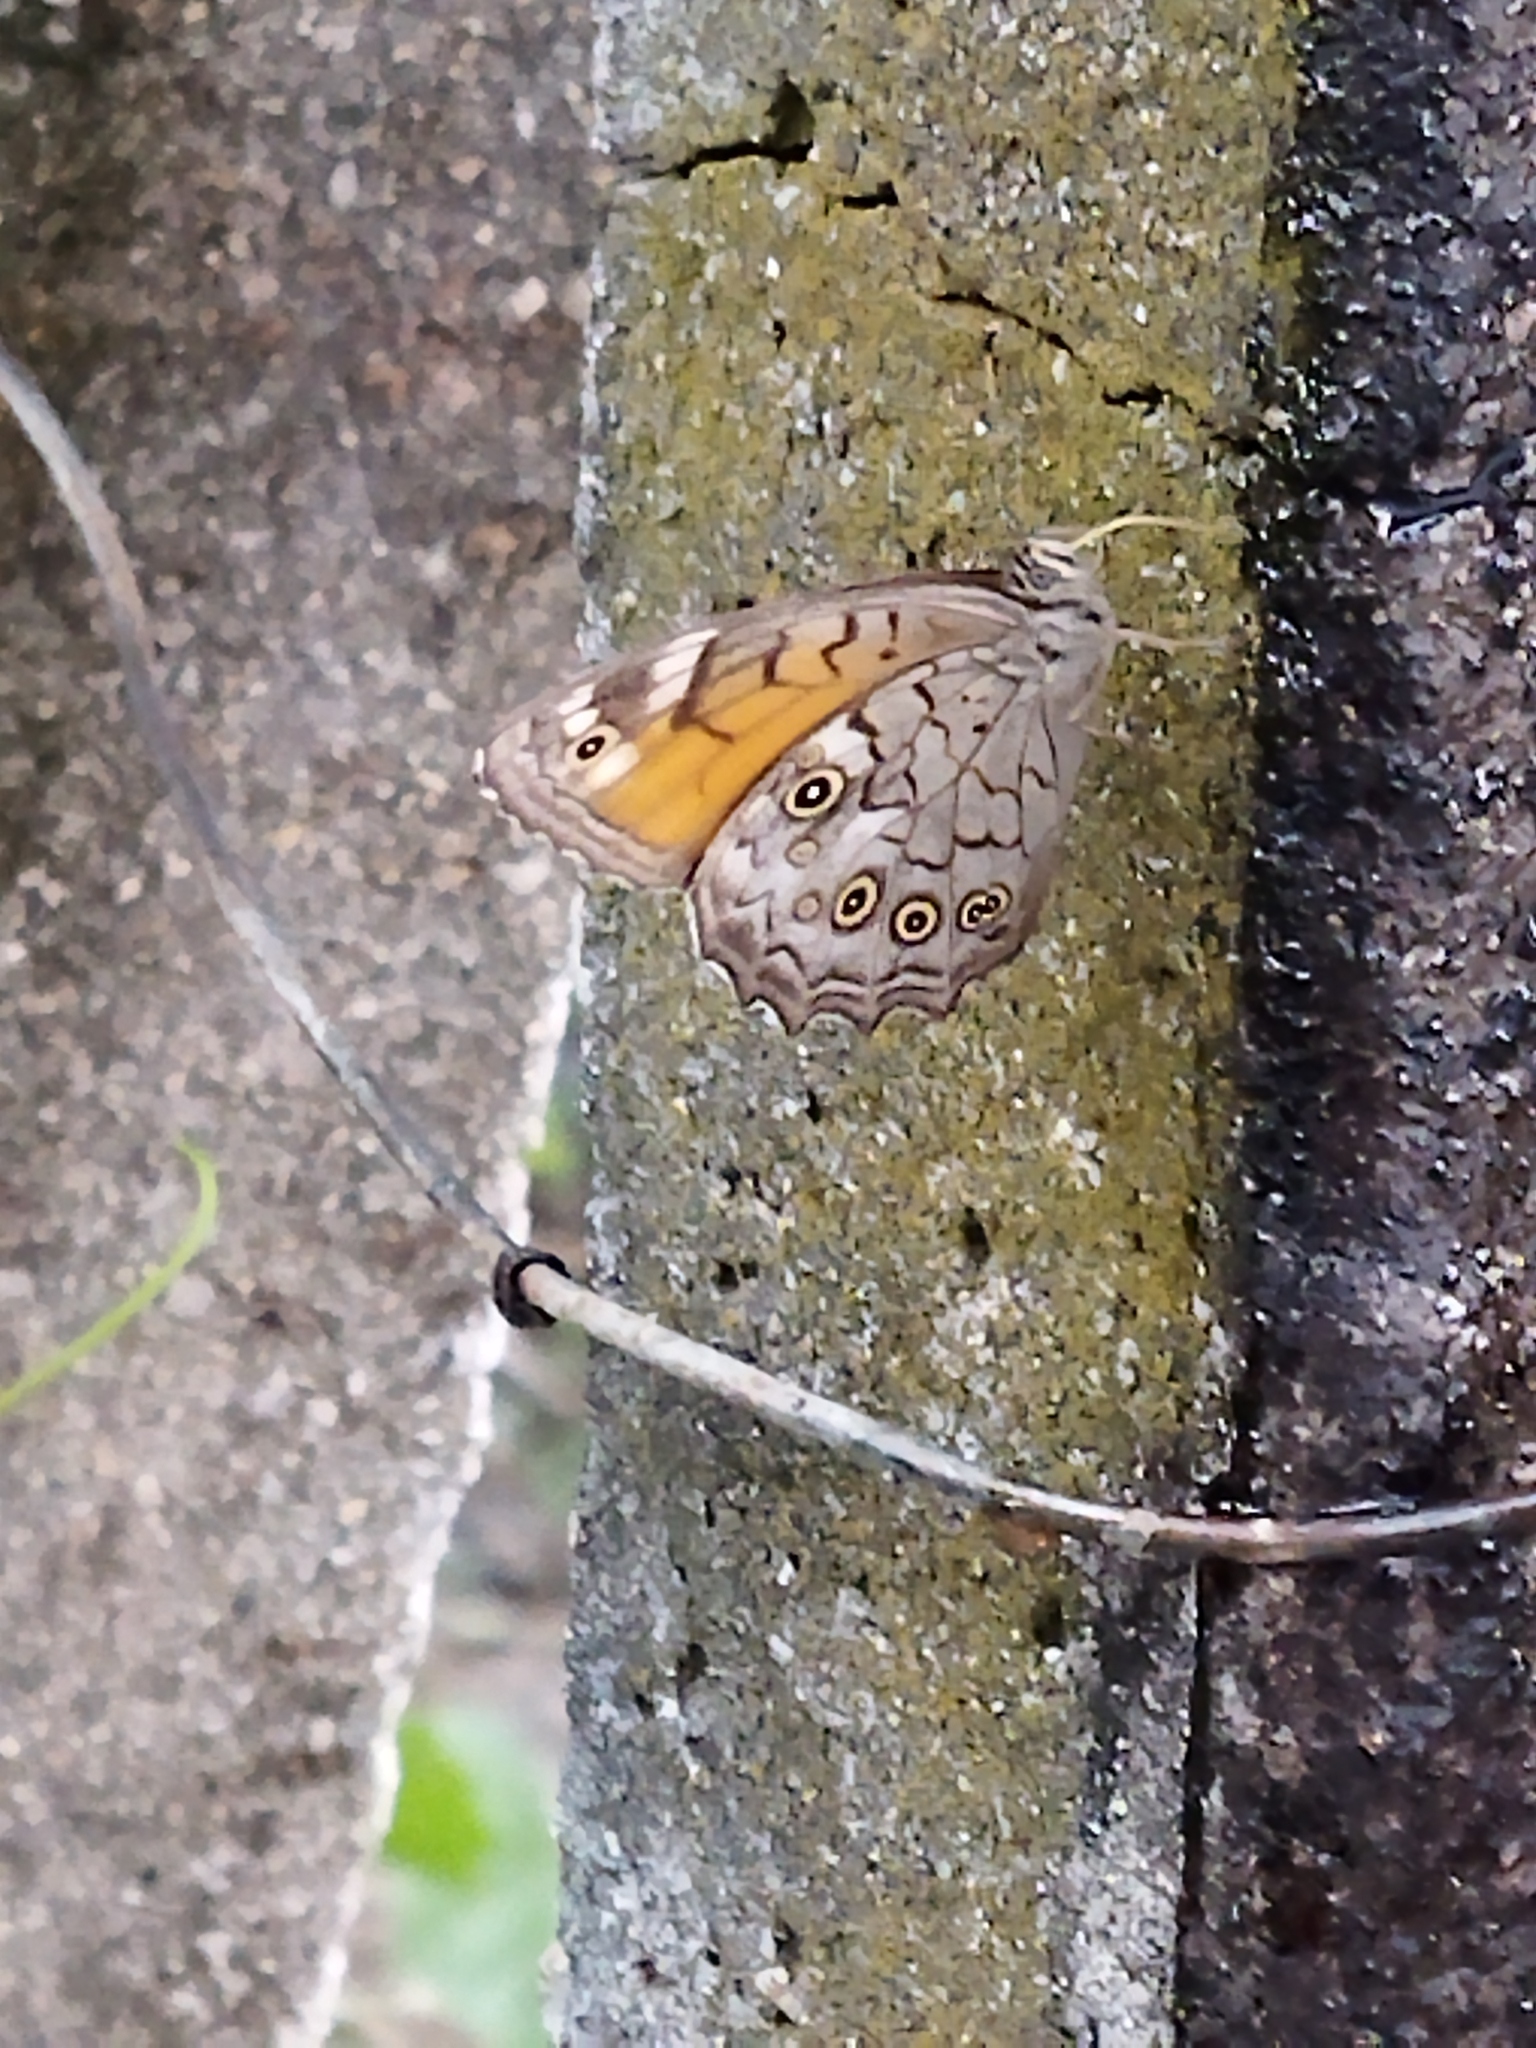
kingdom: Animalia
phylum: Arthropoda
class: Insecta
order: Lepidoptera
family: Nymphalidae
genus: Kirinia
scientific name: Kirinia roxelana
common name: Lattice brown
